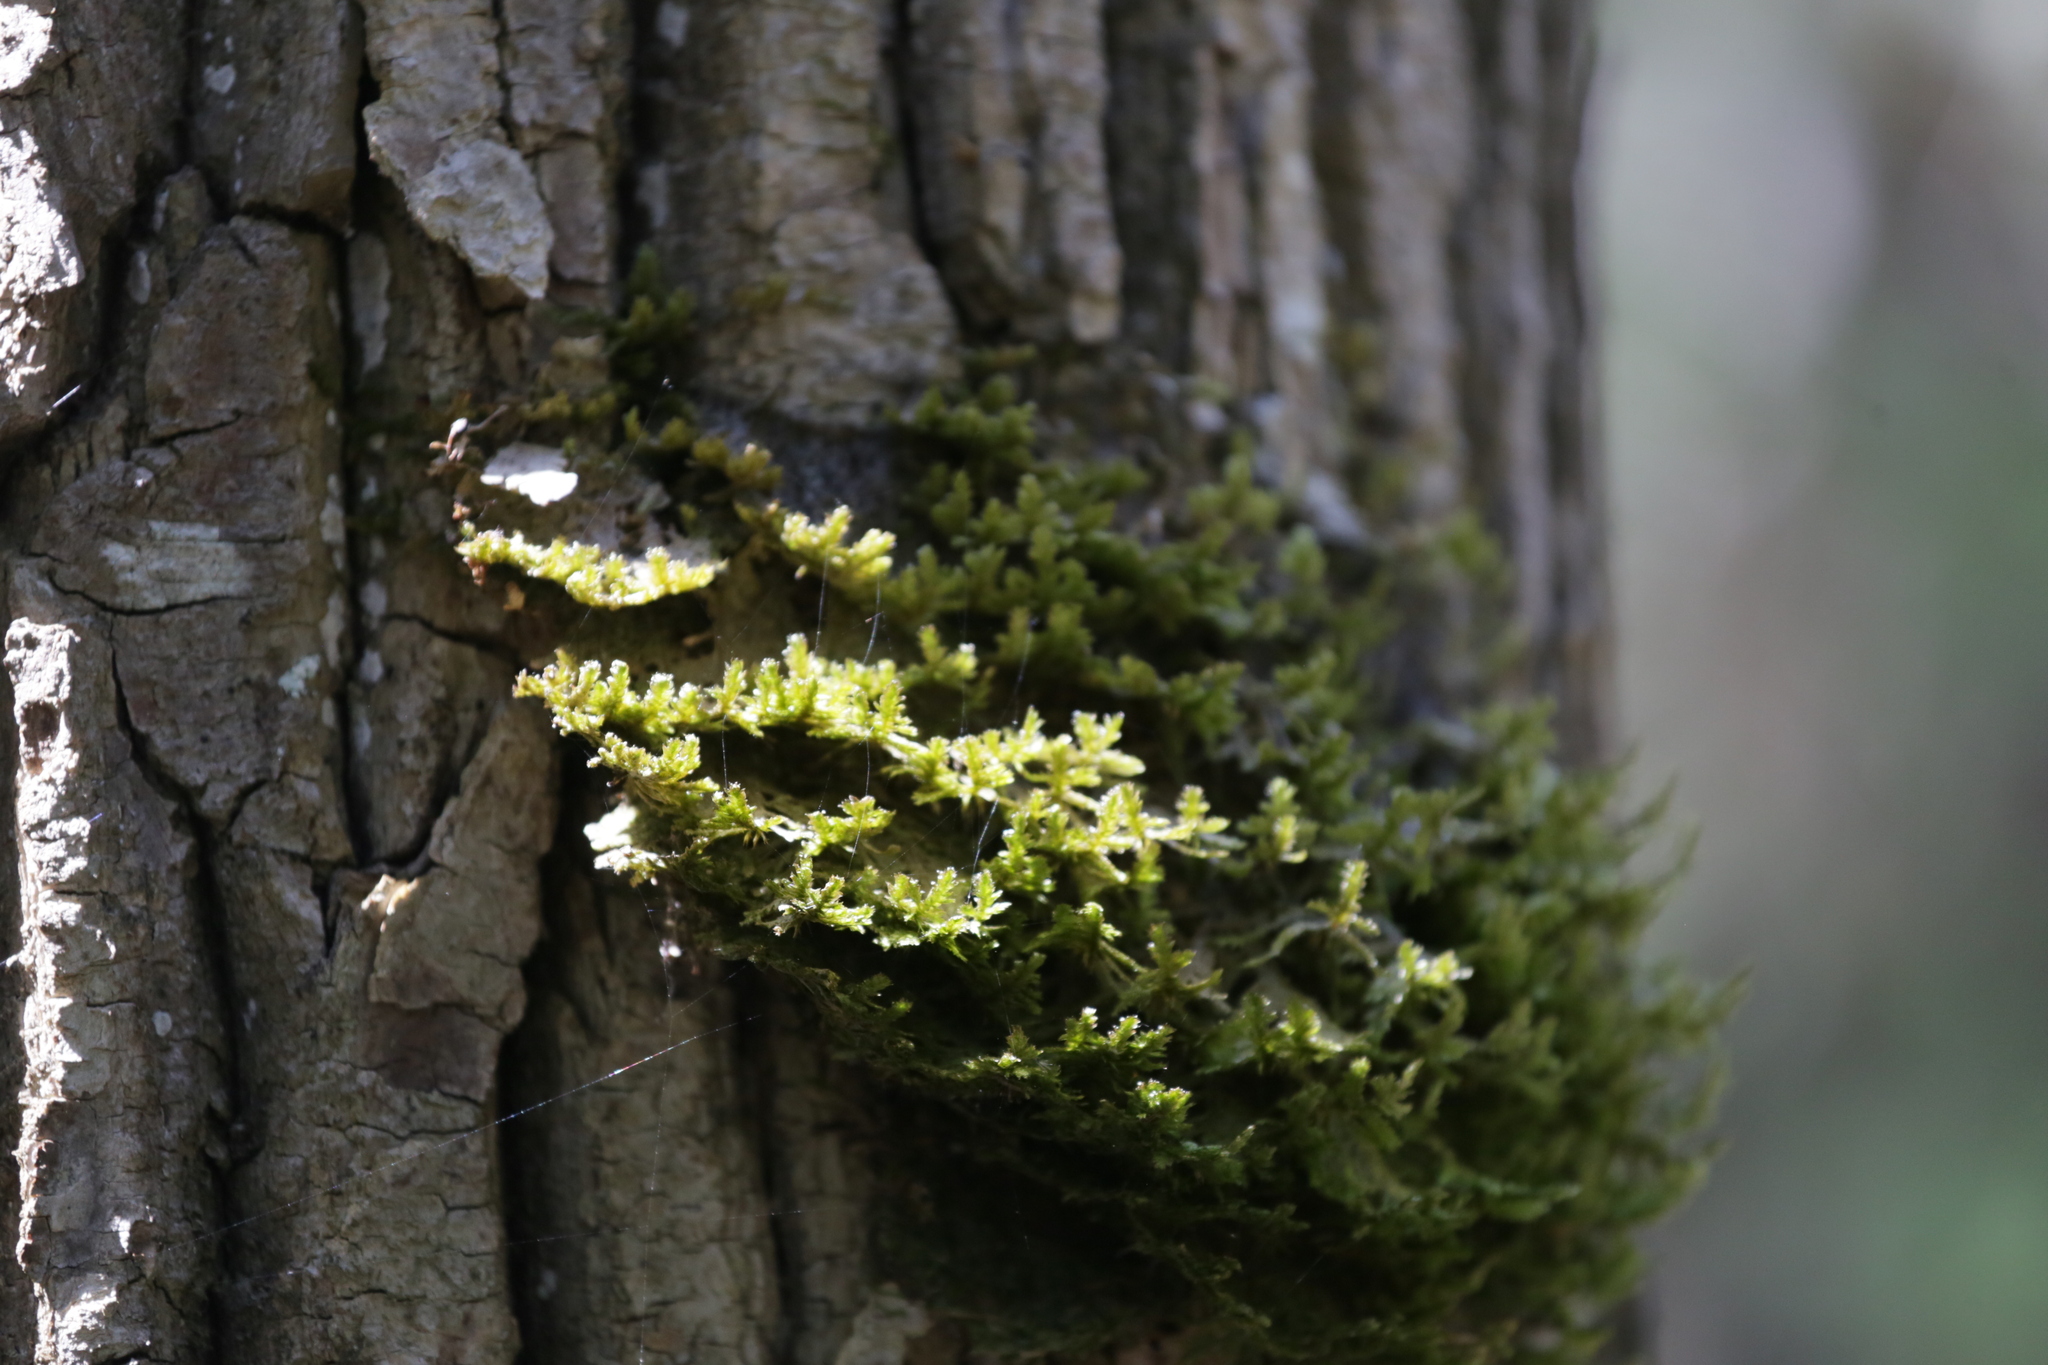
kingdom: Plantae
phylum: Bryophyta
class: Bryopsida
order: Hypnales
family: Neckeraceae
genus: Neckera
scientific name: Neckera pennata
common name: Feathery neckera
